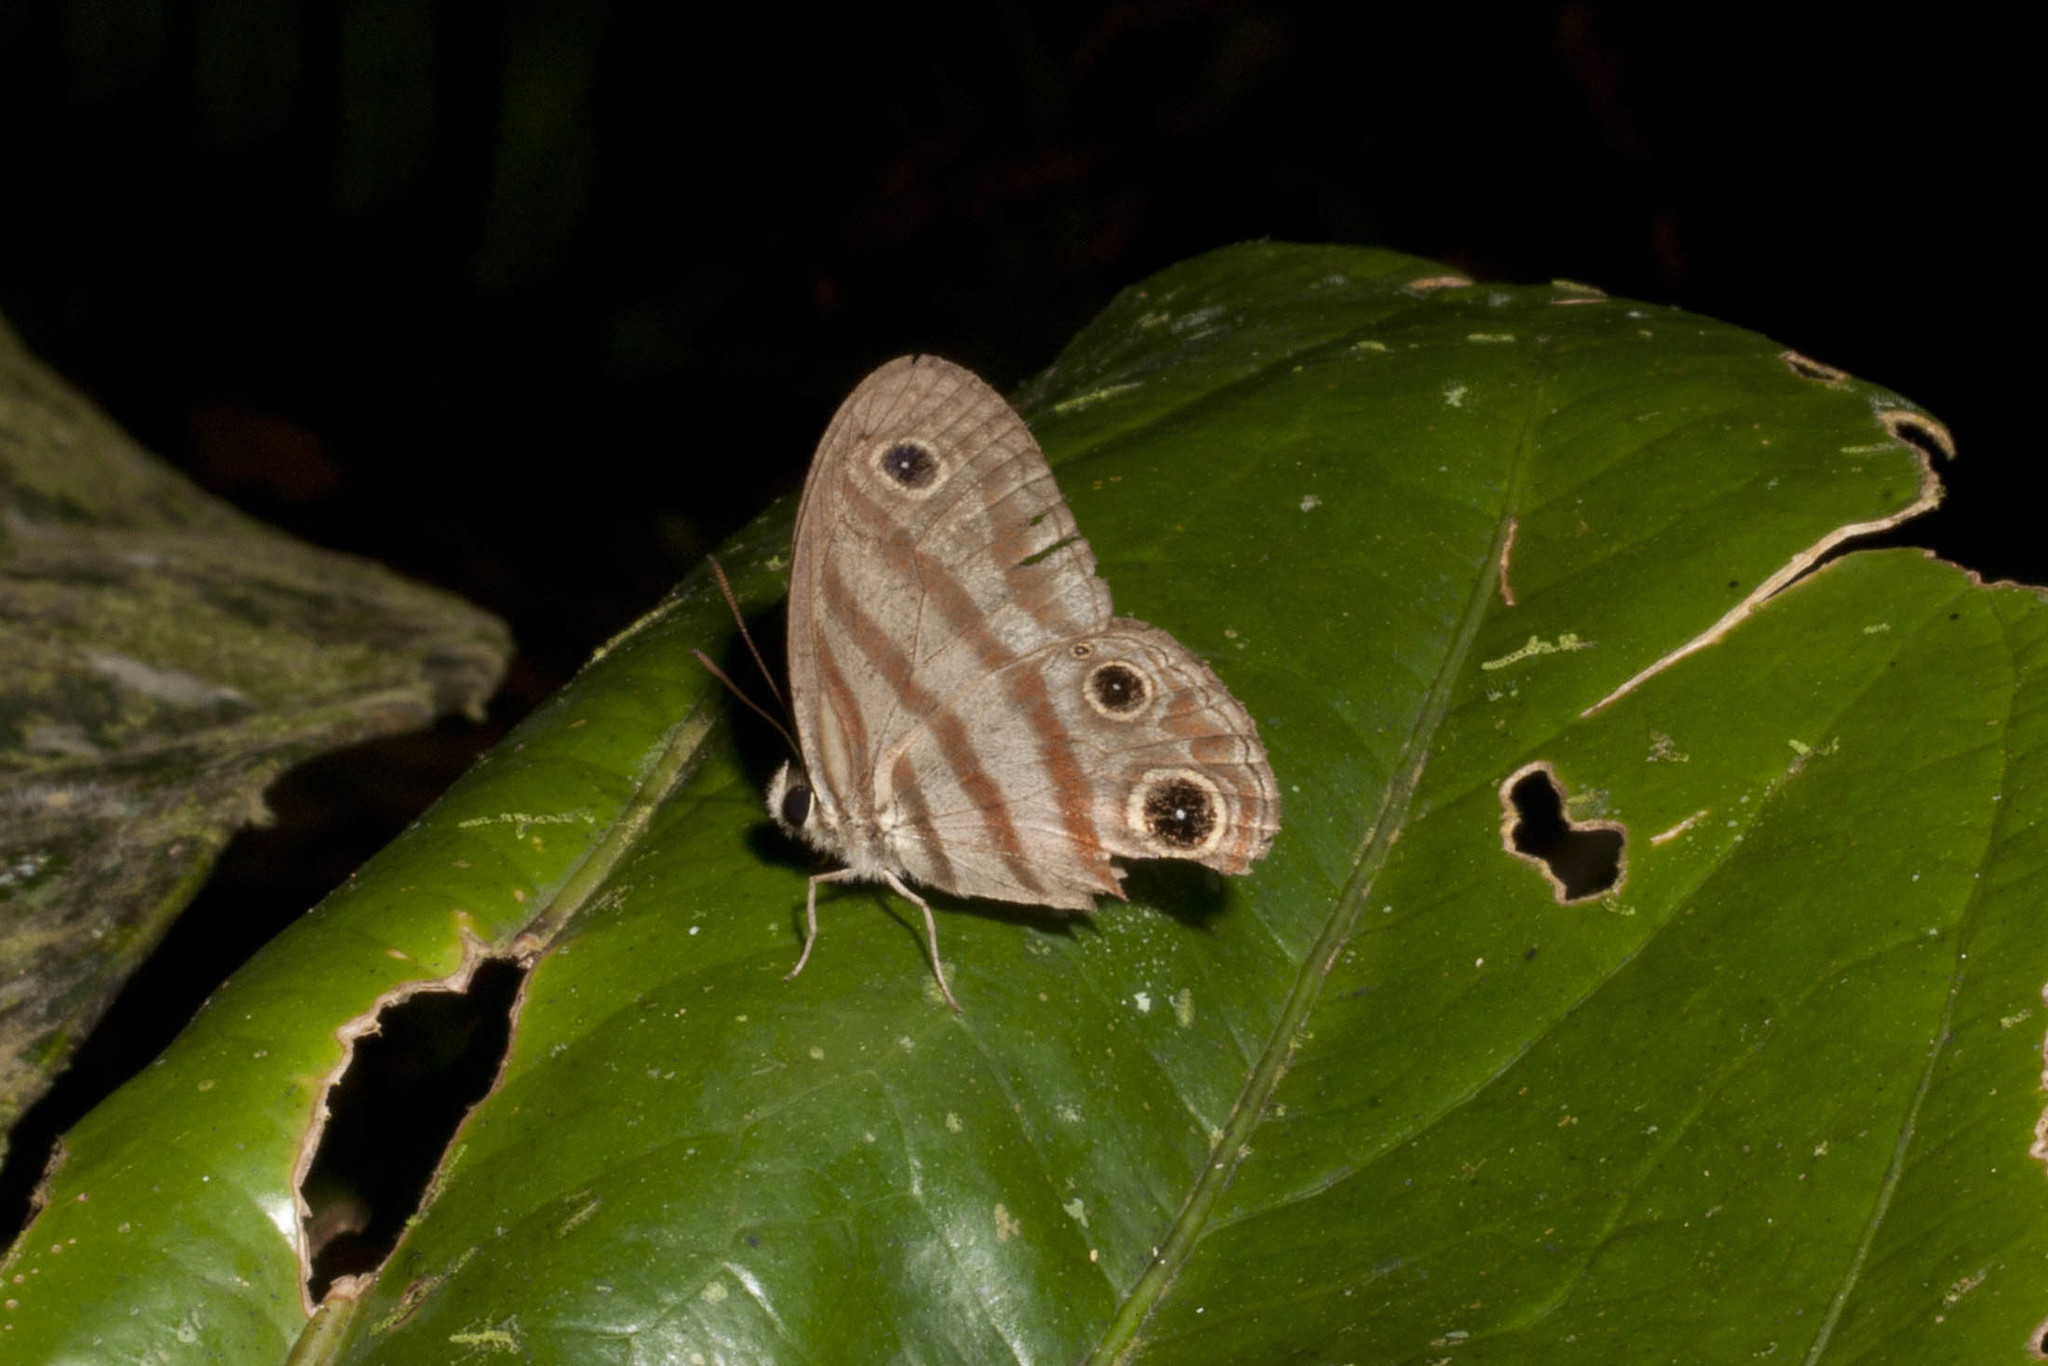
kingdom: Animalia
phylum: Arthropoda
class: Insecta
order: Lepidoptera
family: Nymphalidae
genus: Euptychia
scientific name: Euptychia picea
